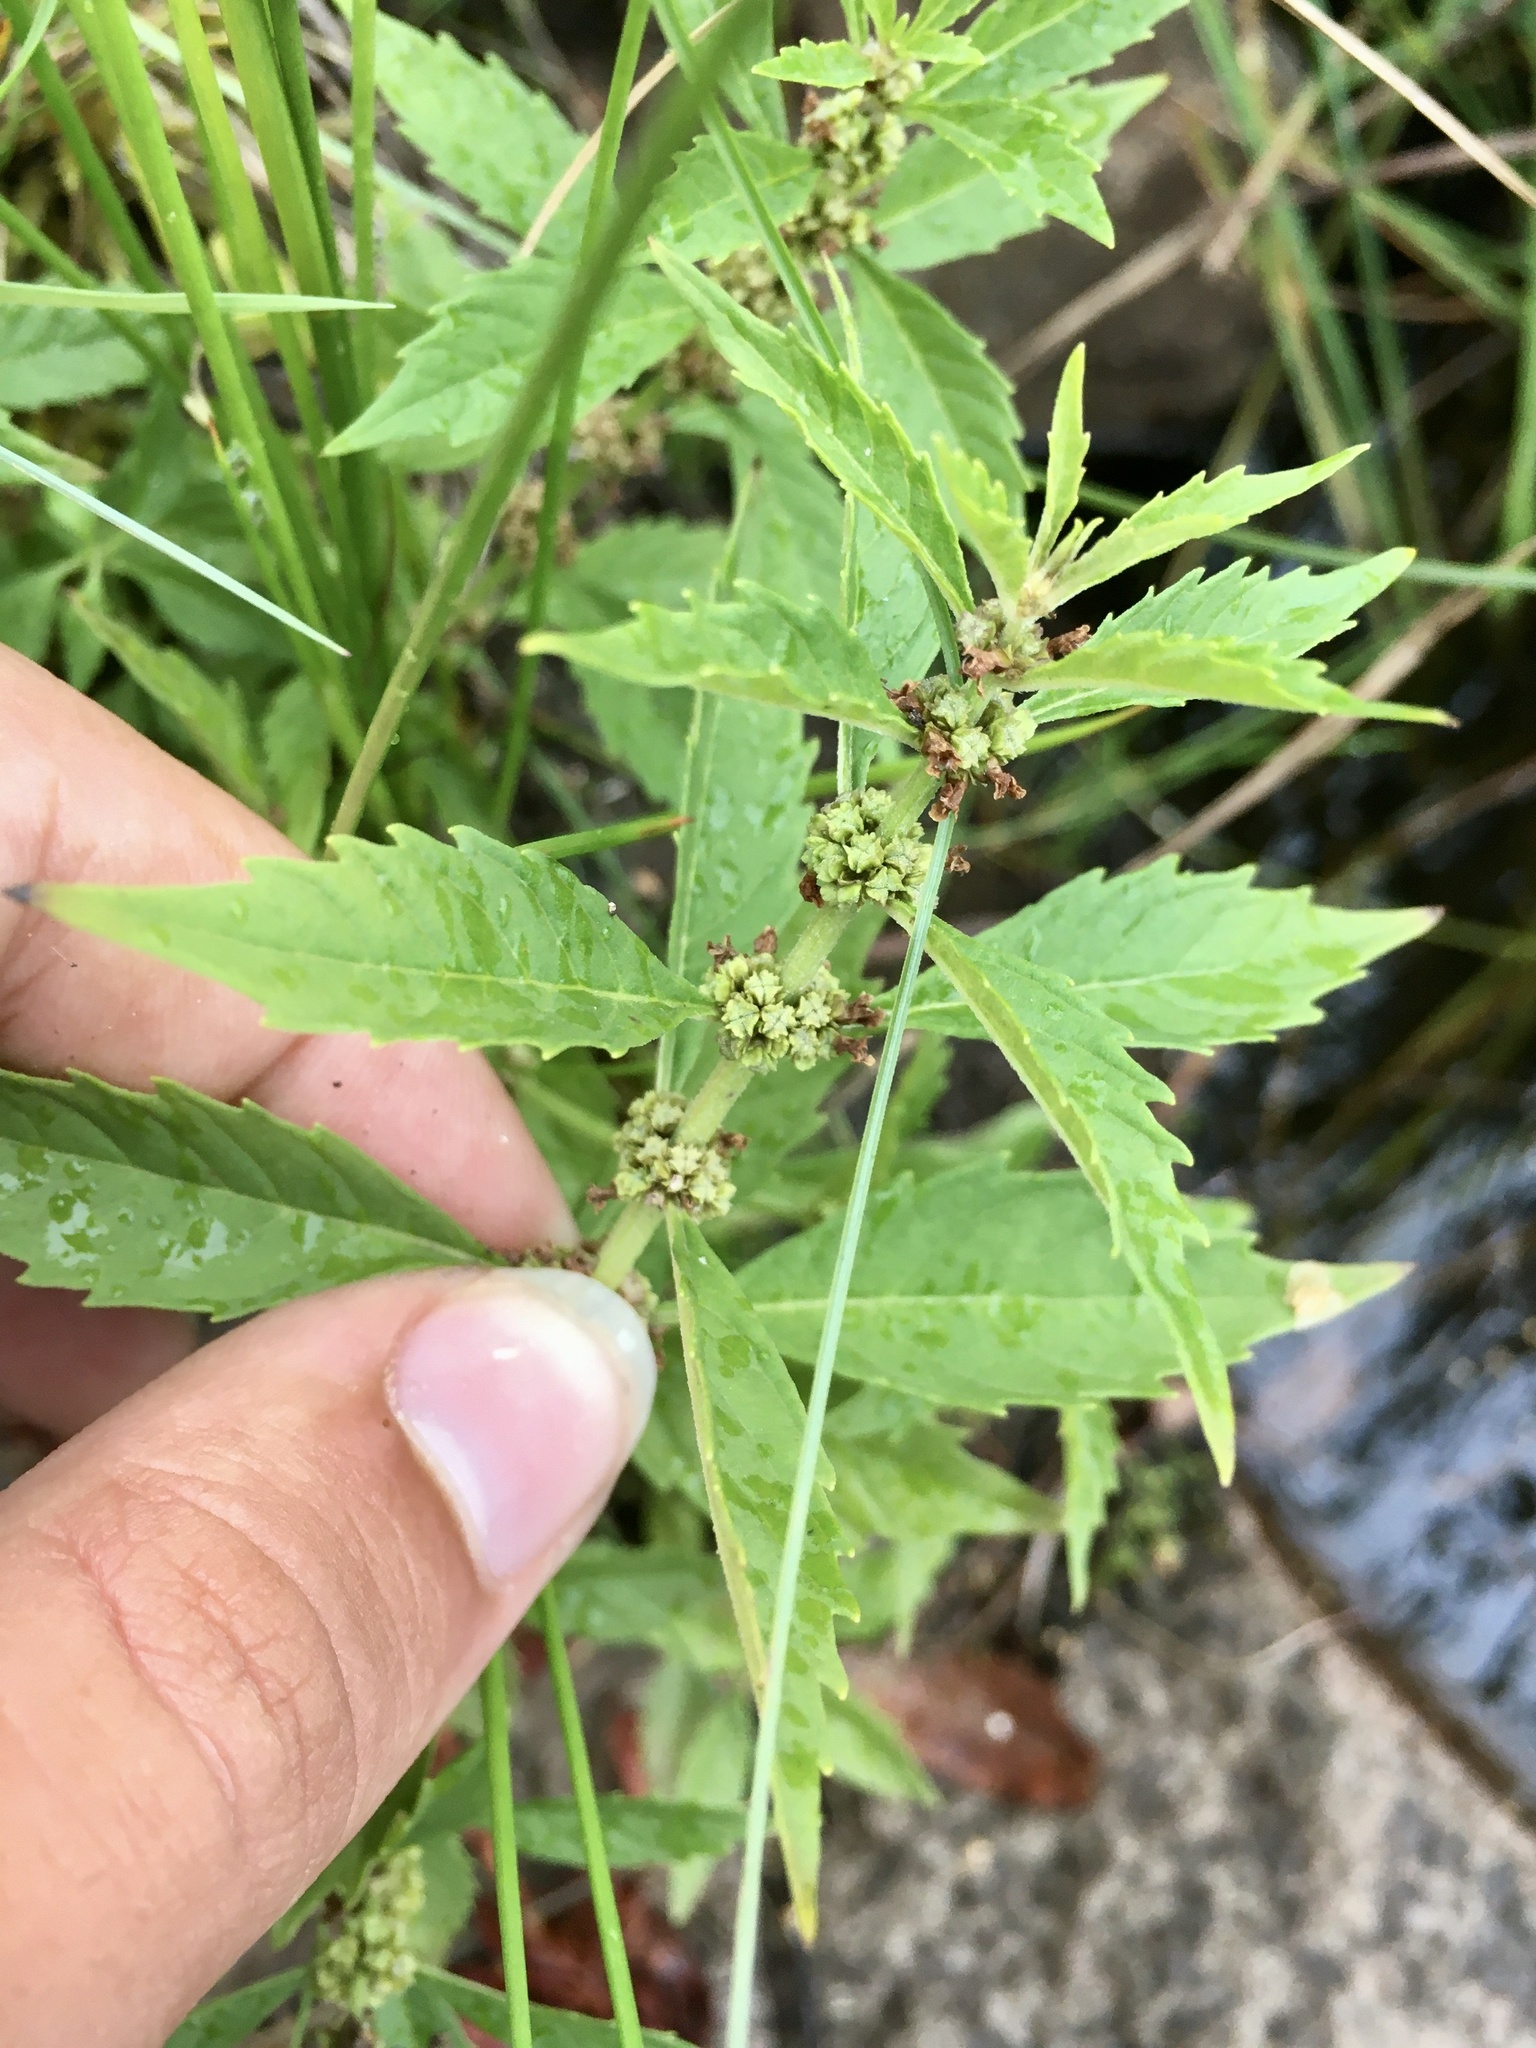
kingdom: Plantae
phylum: Tracheophyta
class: Magnoliopsida
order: Lamiales
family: Lamiaceae
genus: Lycopus
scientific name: Lycopus uniflorus
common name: Northern bugleweed
